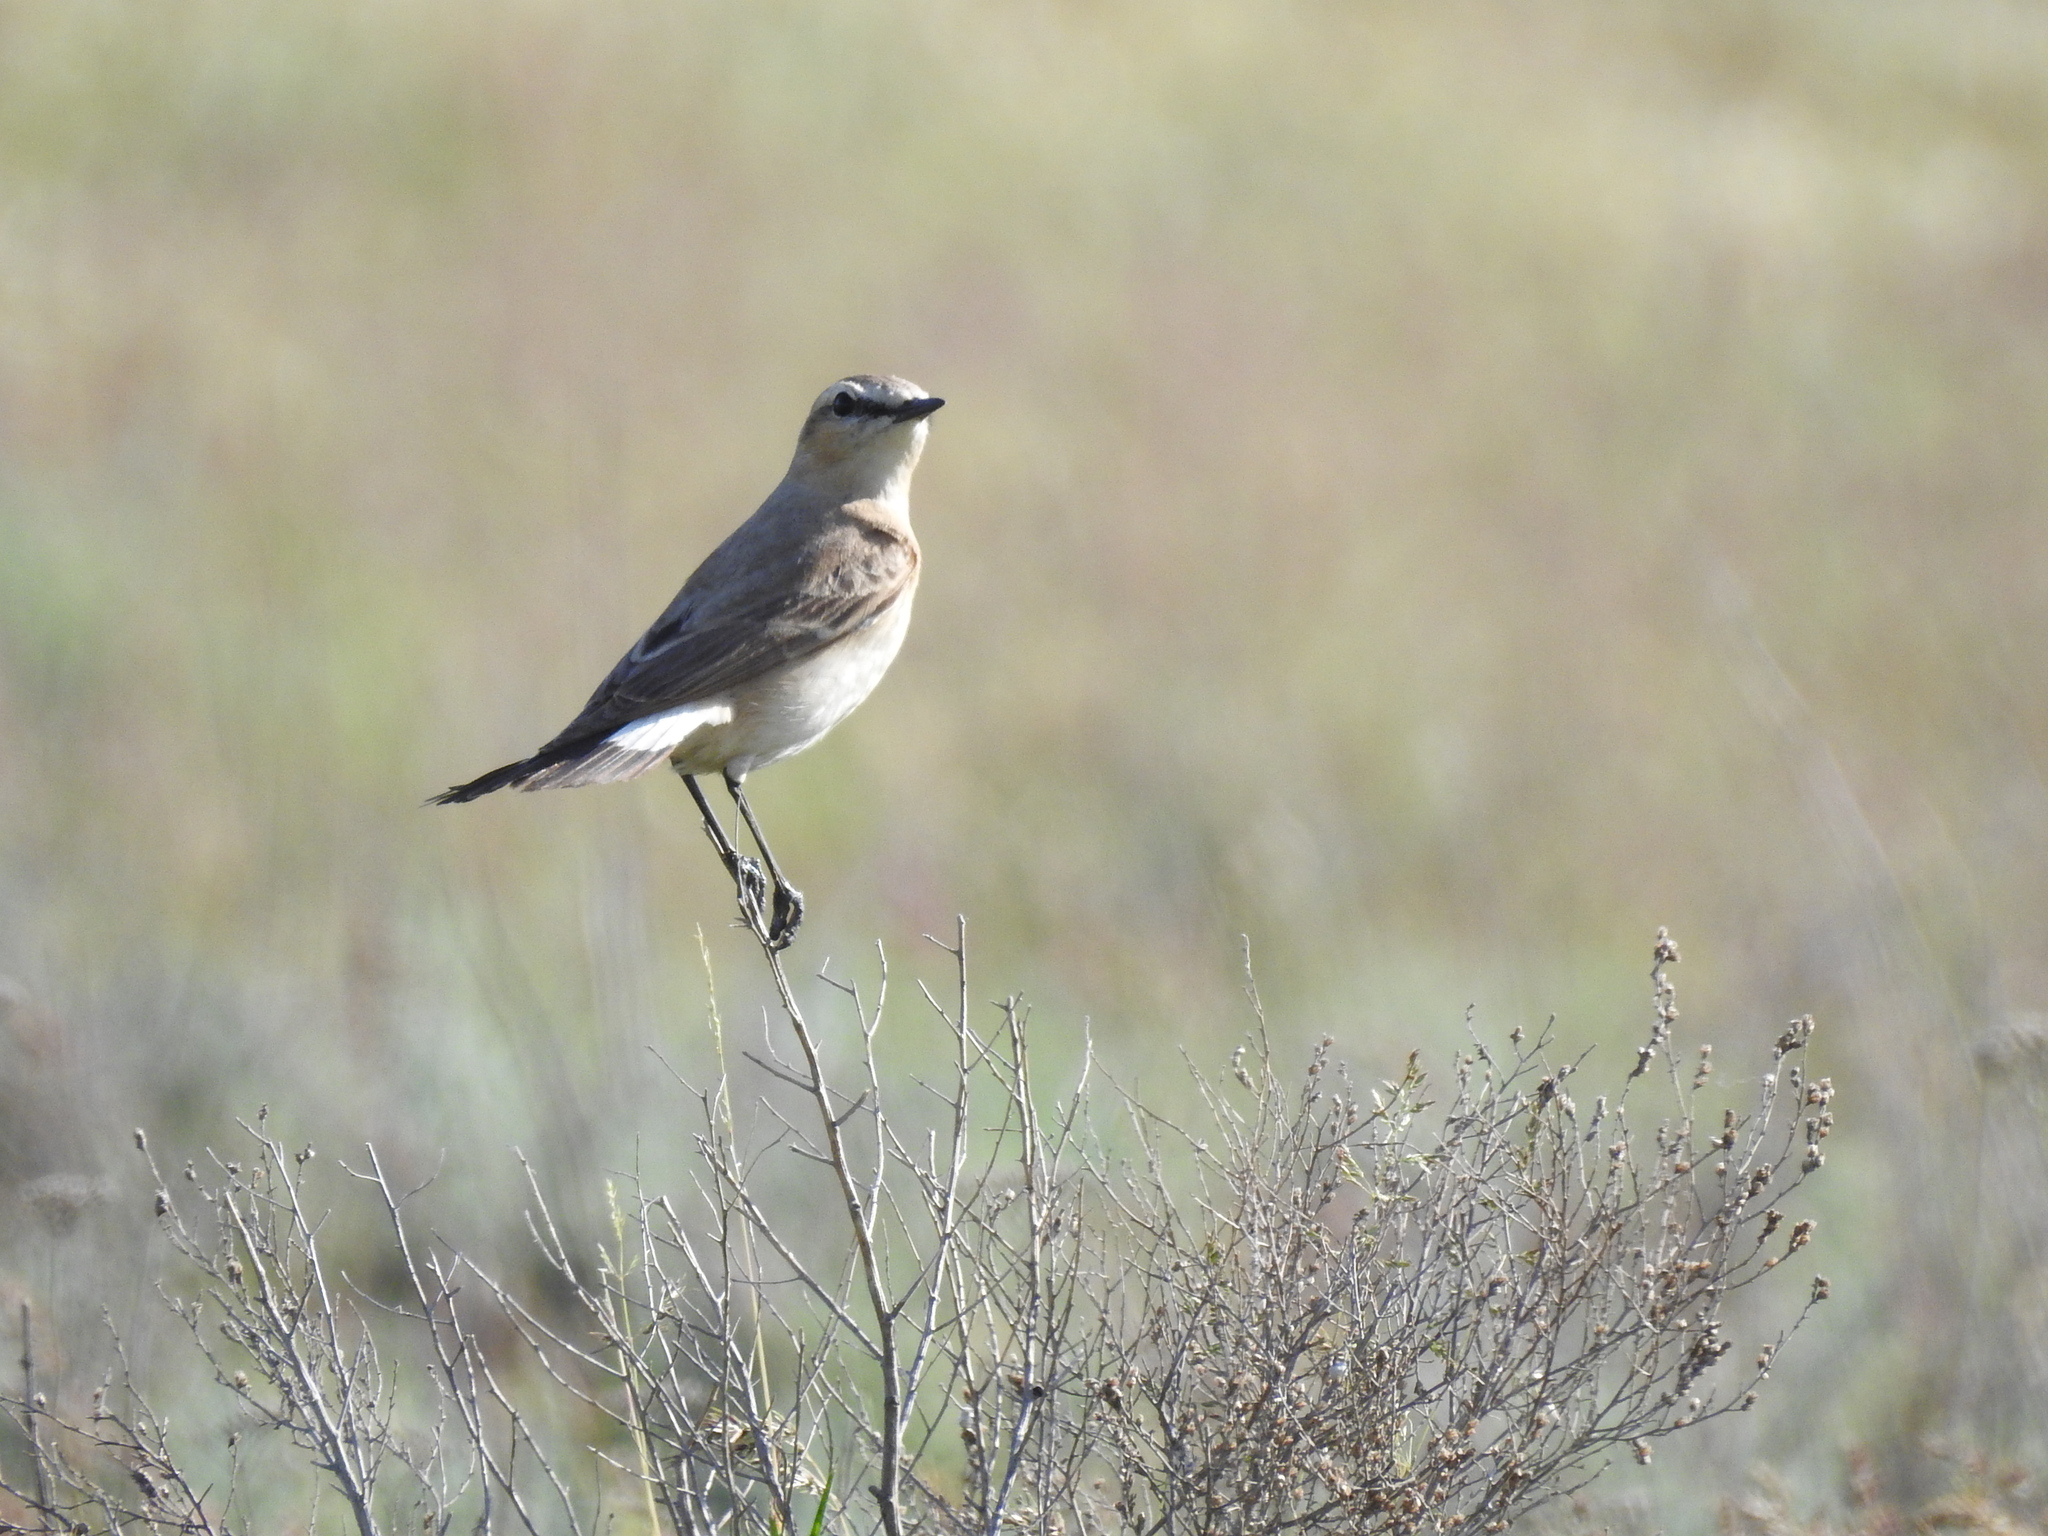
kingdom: Animalia
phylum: Chordata
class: Aves
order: Passeriformes
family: Muscicapidae
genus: Oenanthe
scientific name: Oenanthe isabellina
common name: Isabelline wheatear
